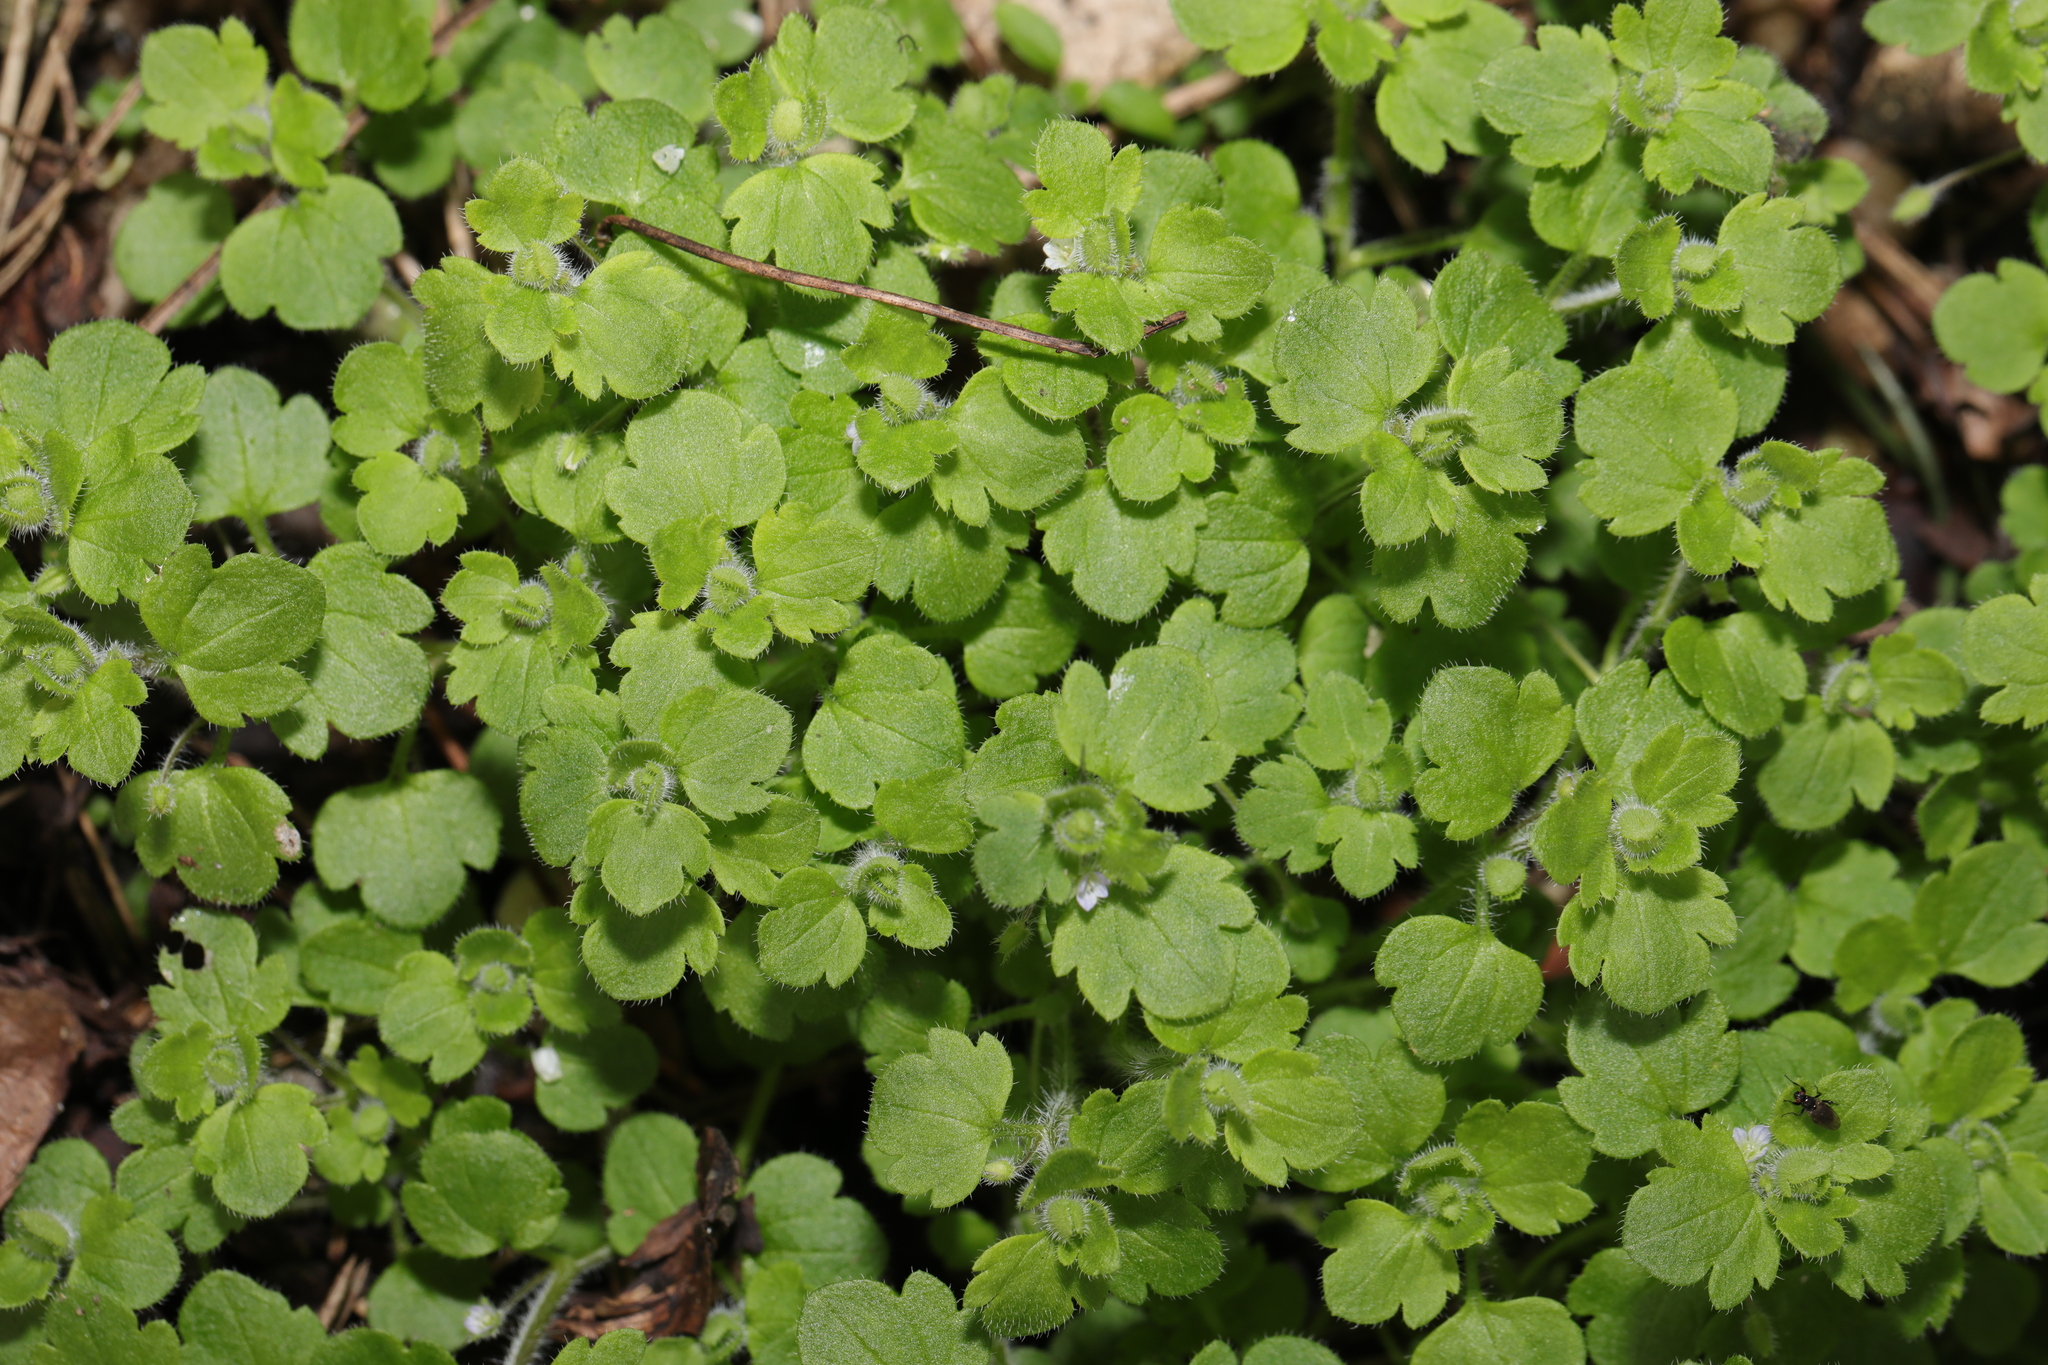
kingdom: Plantae
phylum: Tracheophyta
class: Magnoliopsida
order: Lamiales
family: Plantaginaceae
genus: Veronica
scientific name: Veronica sublobata
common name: False ivy-leaved speedwell
